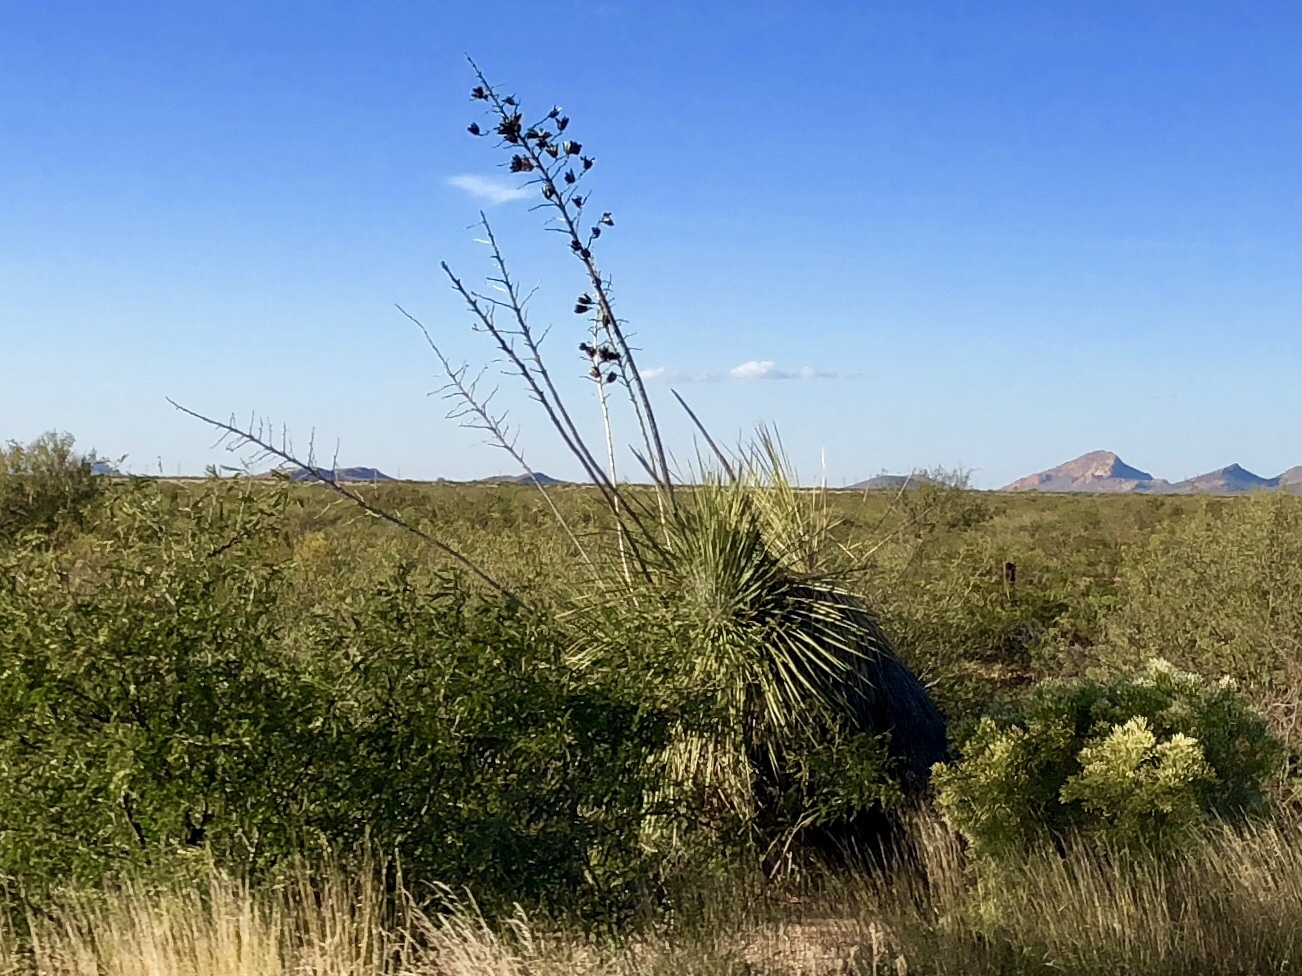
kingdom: Plantae
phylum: Tracheophyta
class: Liliopsida
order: Asparagales
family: Asparagaceae
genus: Yucca
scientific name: Yucca elata
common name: Palmella
